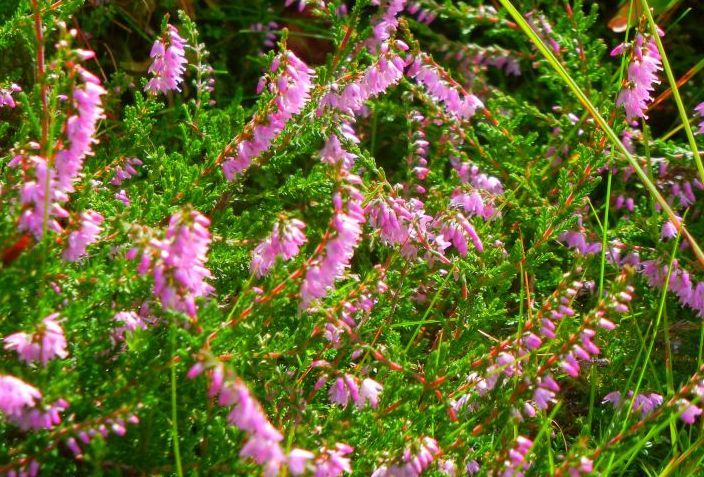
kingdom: Plantae
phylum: Tracheophyta
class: Magnoliopsida
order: Ericales
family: Ericaceae
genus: Calluna
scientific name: Calluna vulgaris
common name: Heather
